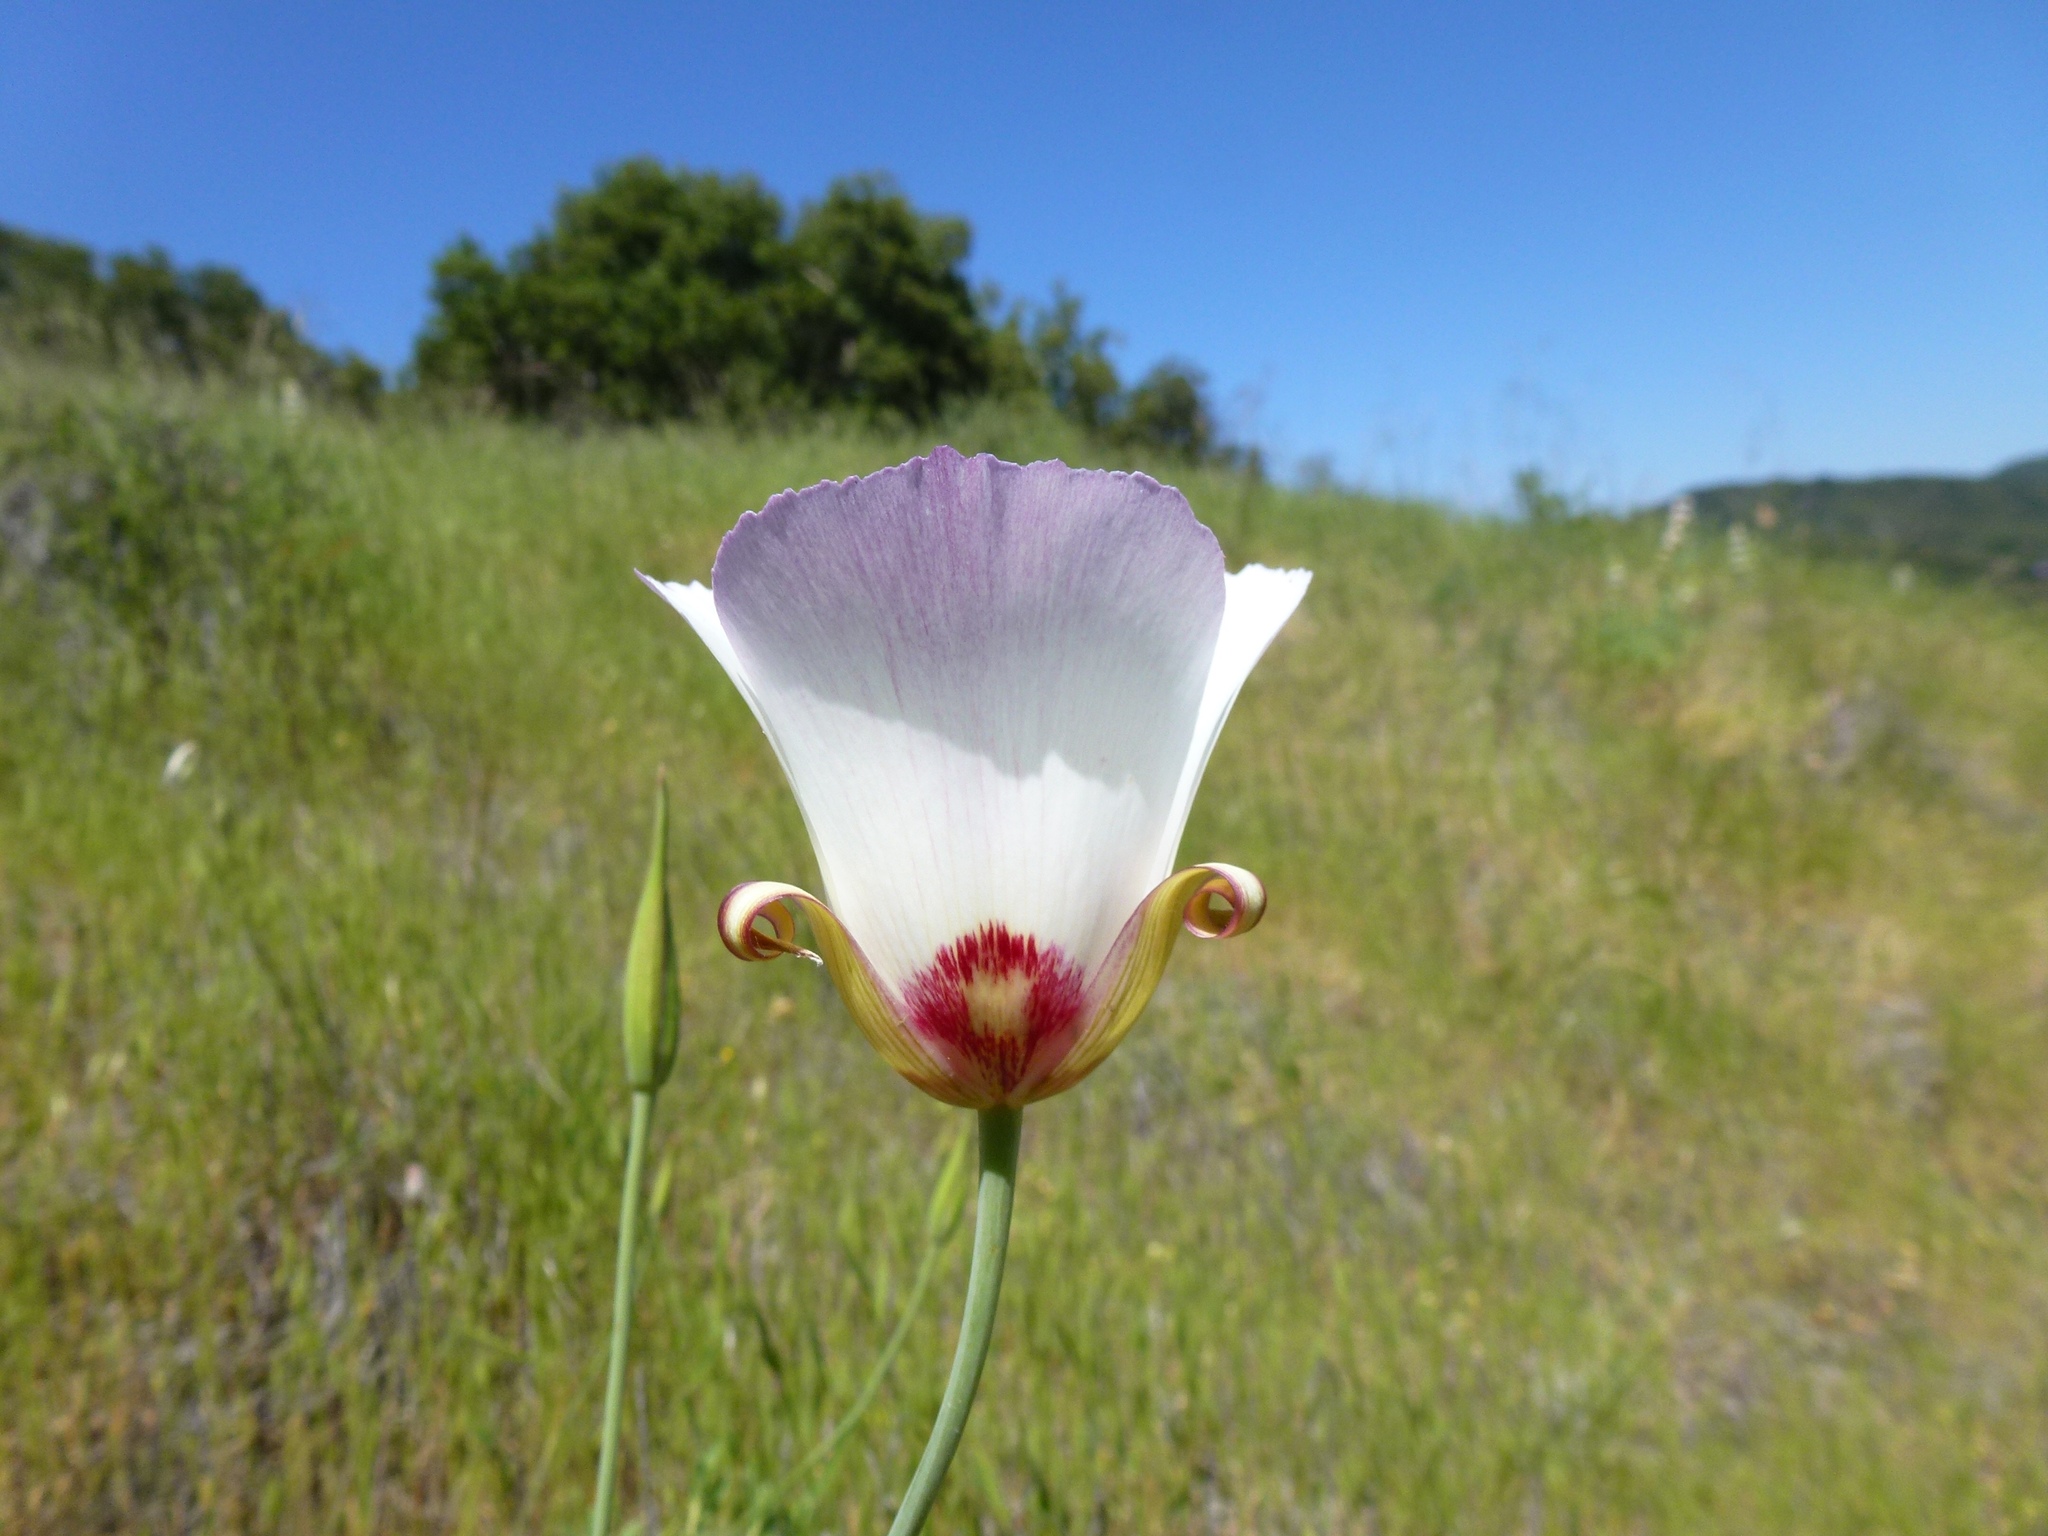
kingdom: Plantae
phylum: Tracheophyta
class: Liliopsida
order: Liliales
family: Liliaceae
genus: Calochortus
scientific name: Calochortus simulans
